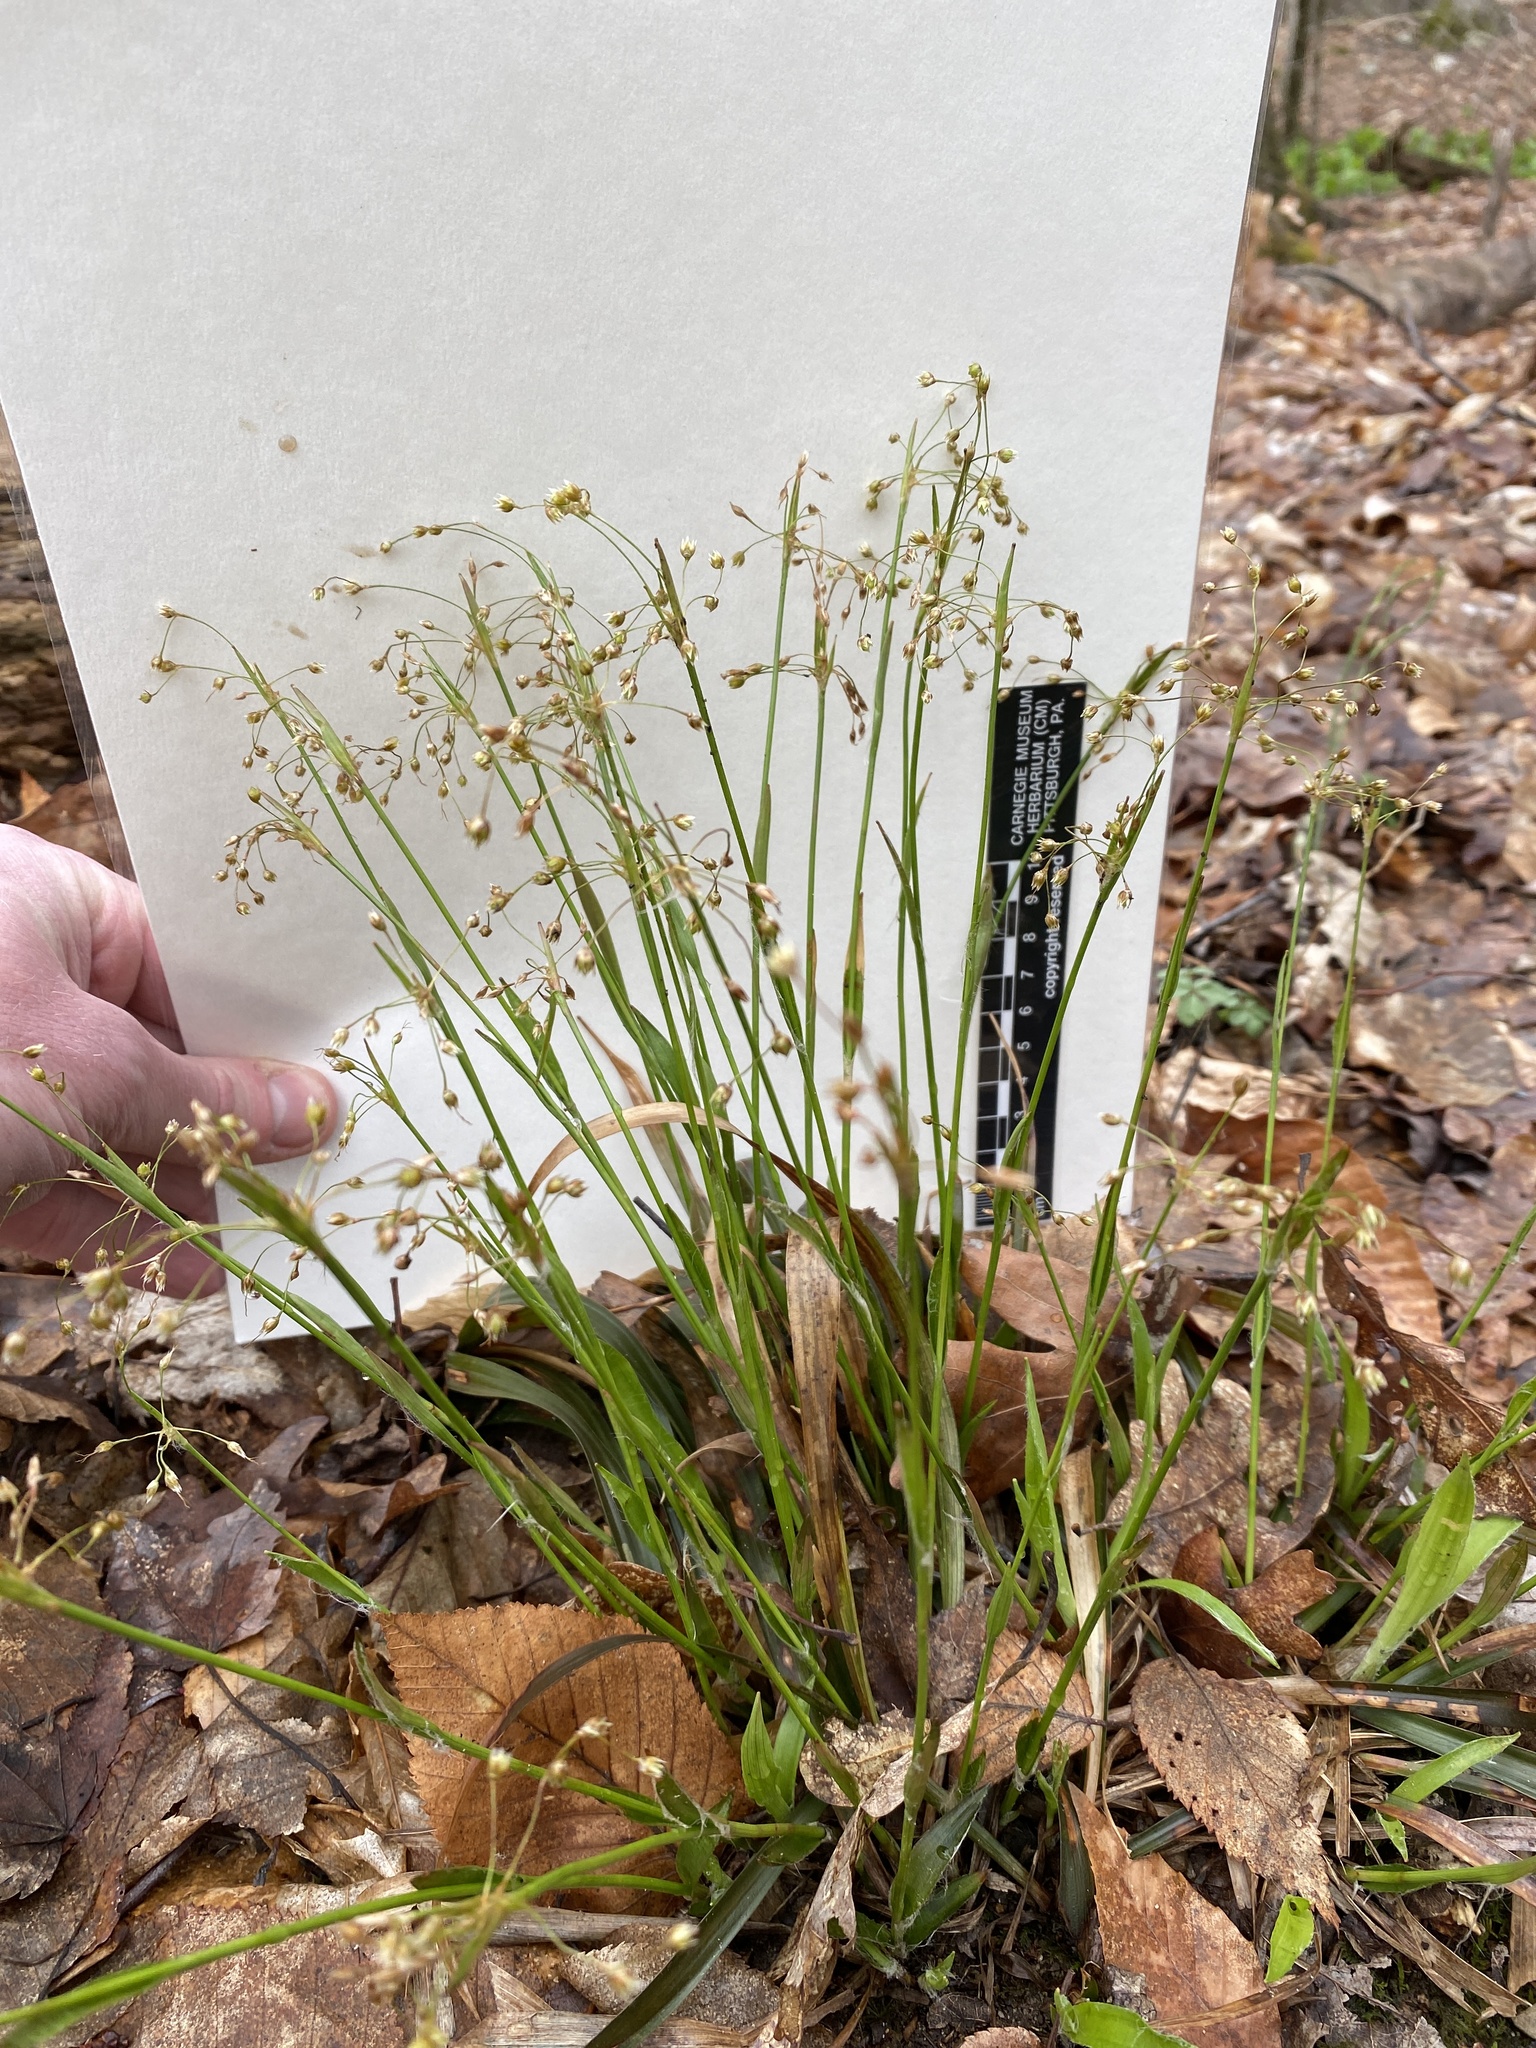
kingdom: Plantae
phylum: Tracheophyta
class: Liliopsida
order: Poales
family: Juncaceae
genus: Luzula
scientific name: Luzula acuminata
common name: Hairy woodrush
